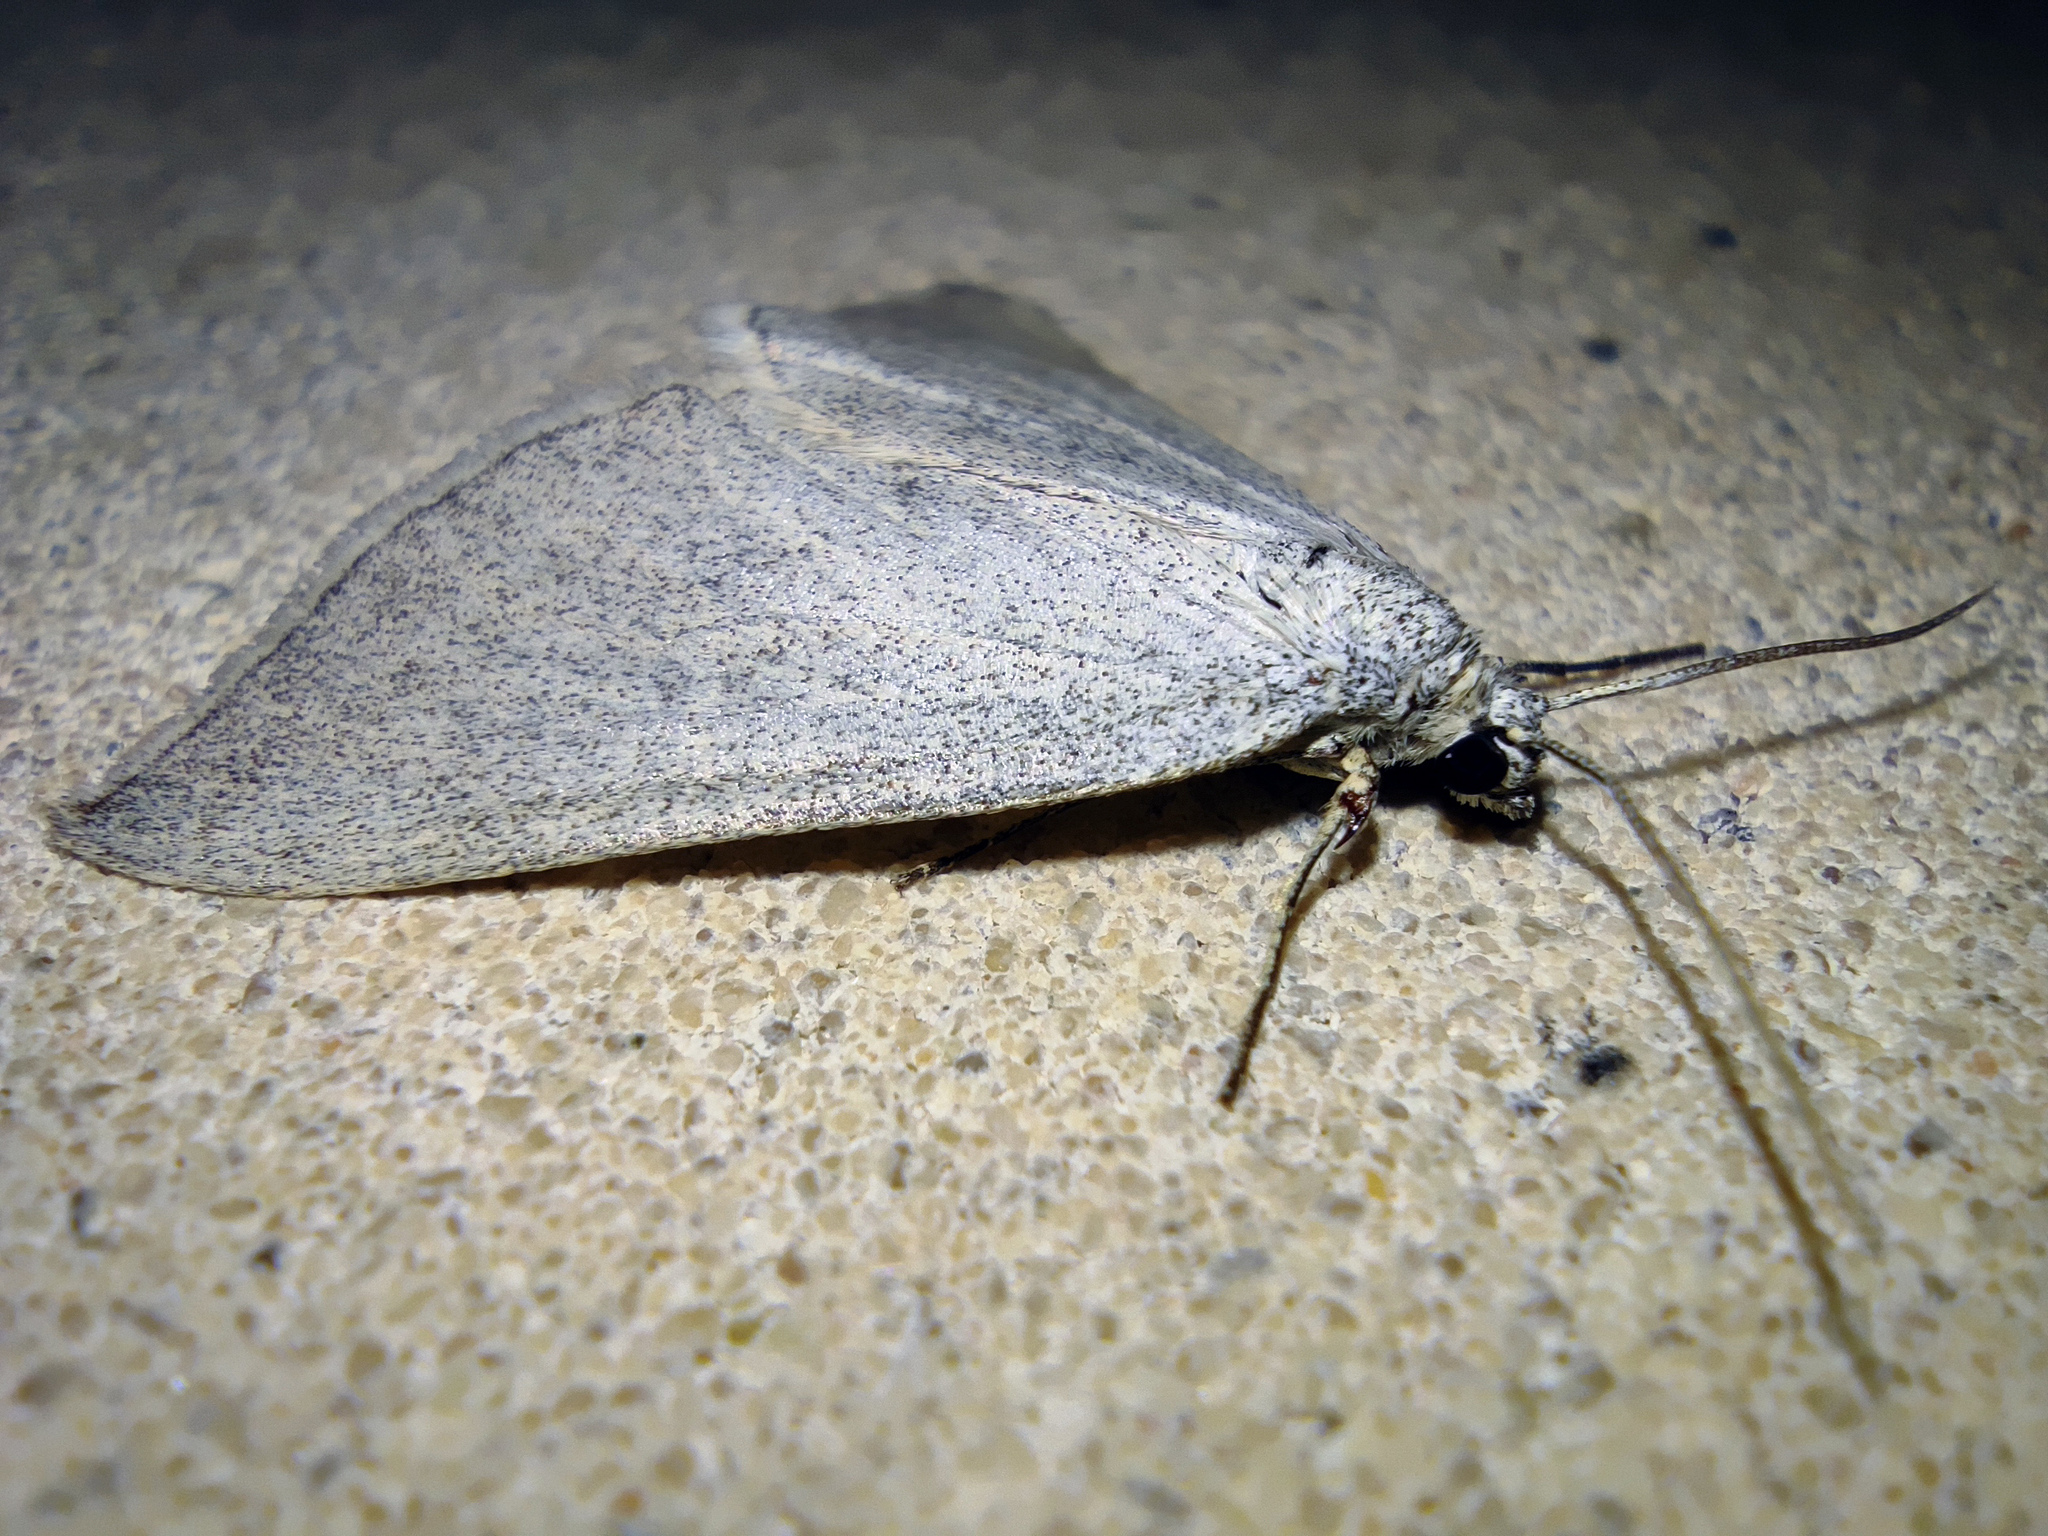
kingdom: Animalia
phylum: Arthropoda
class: Insecta
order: Lepidoptera
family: Geometridae
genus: Lithostege
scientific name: Lithostege griseata
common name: Grey carpet
